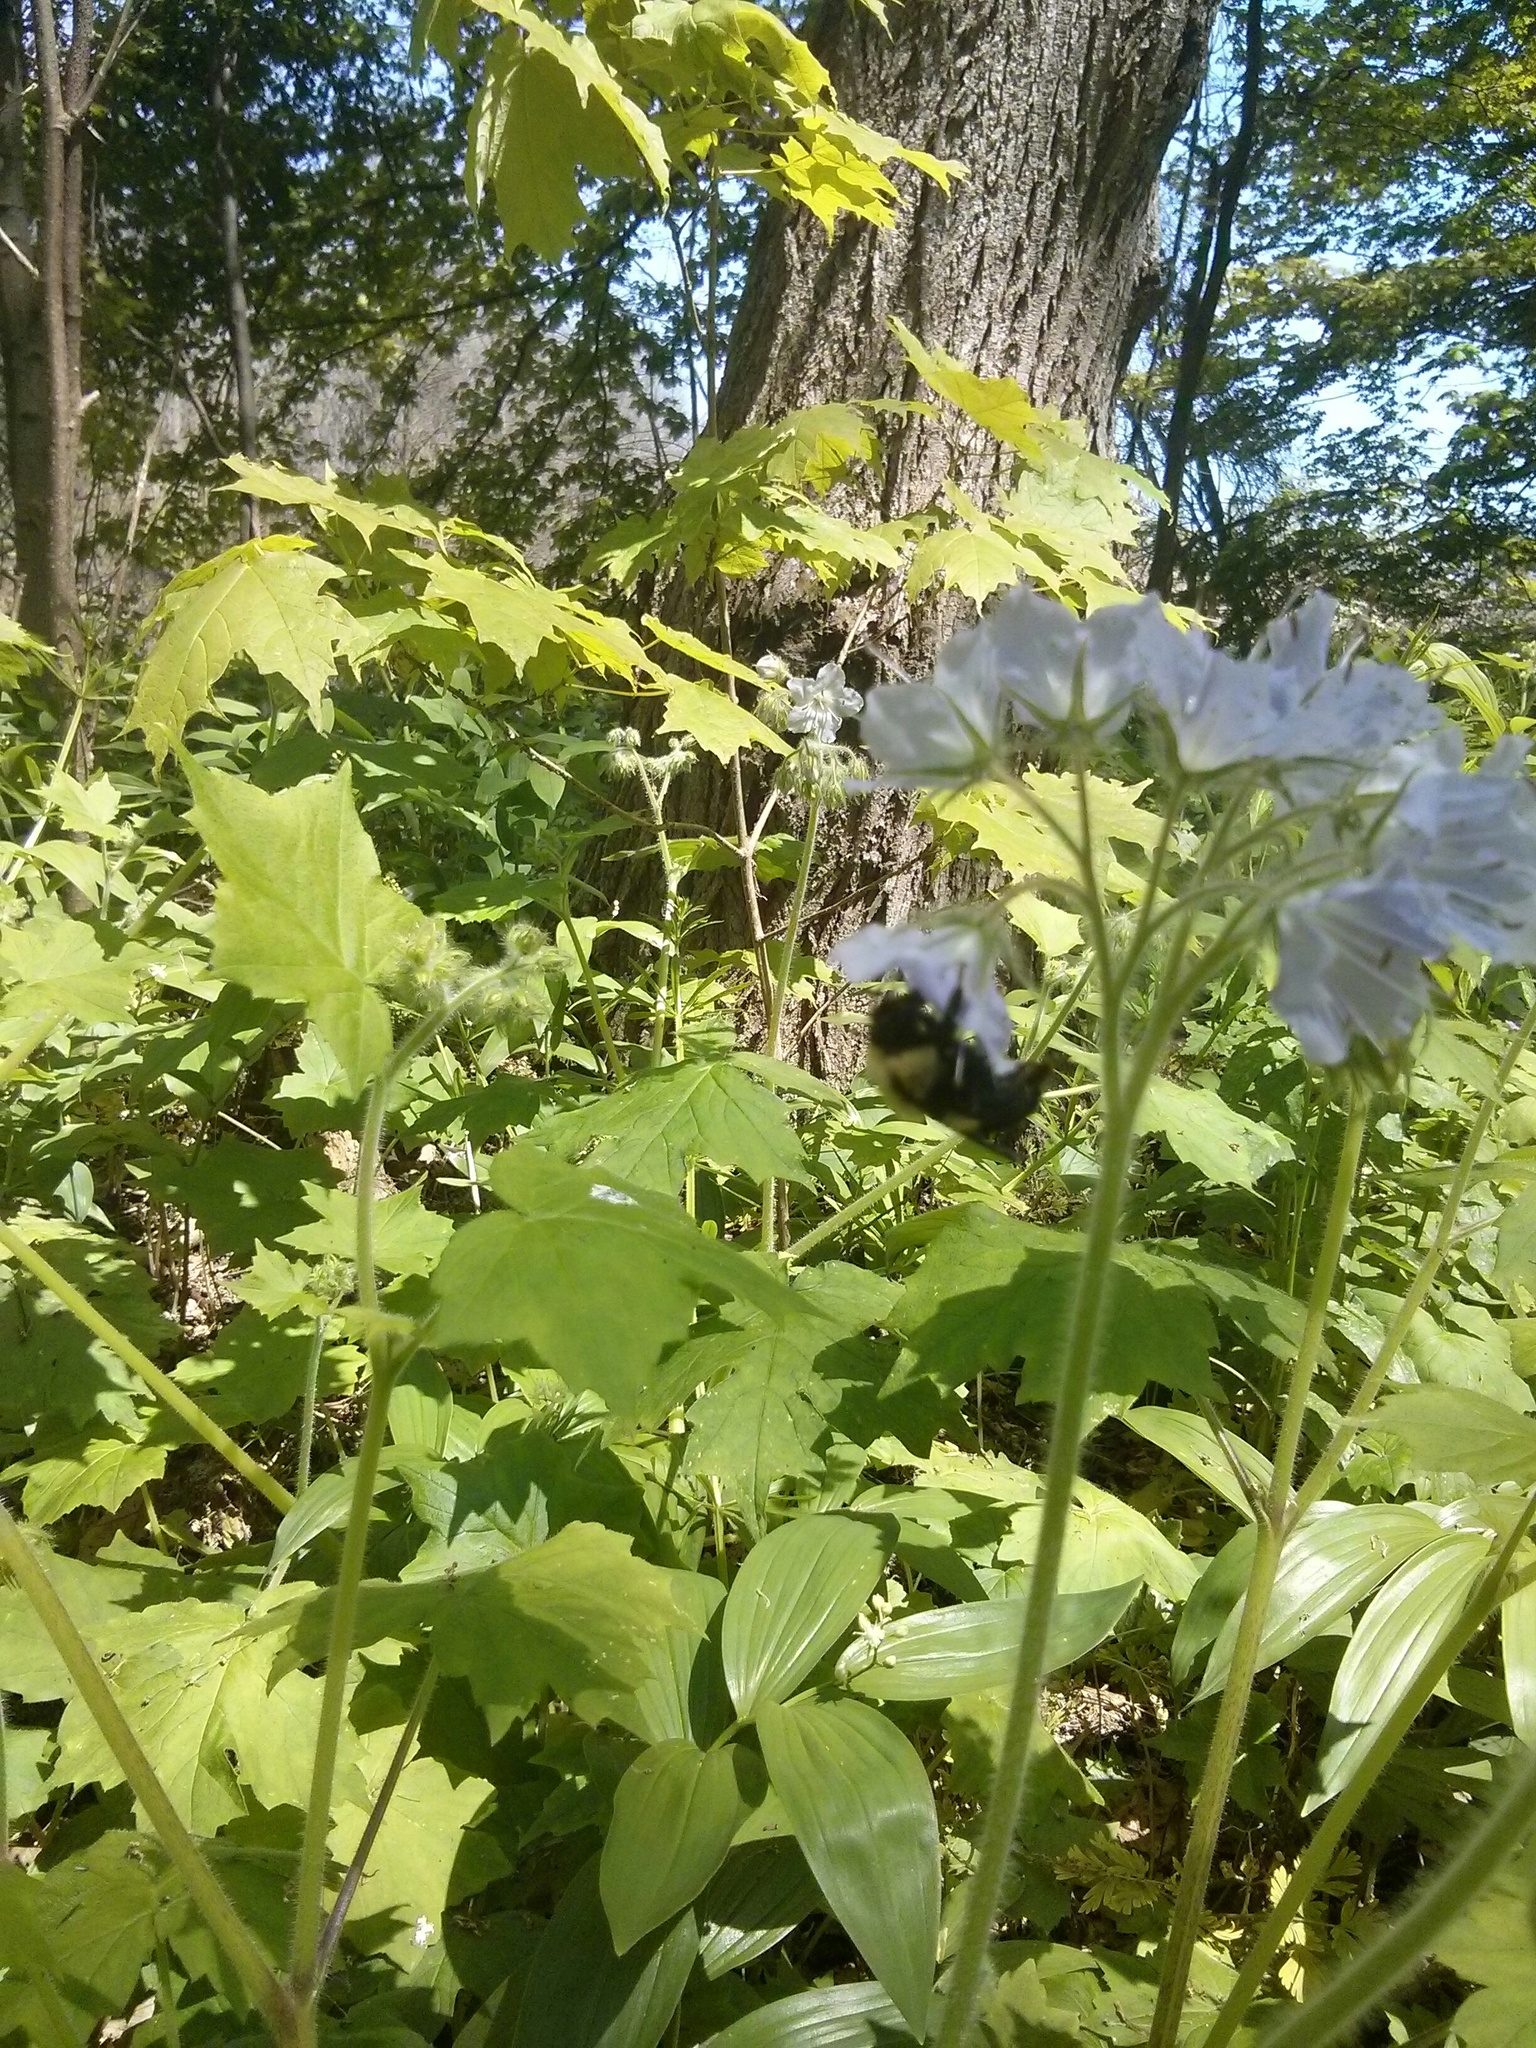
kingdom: Animalia
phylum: Arthropoda
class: Insecta
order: Hymenoptera
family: Apidae
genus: Bombus
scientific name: Bombus griseocollis
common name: Brown-belted bumble bee
